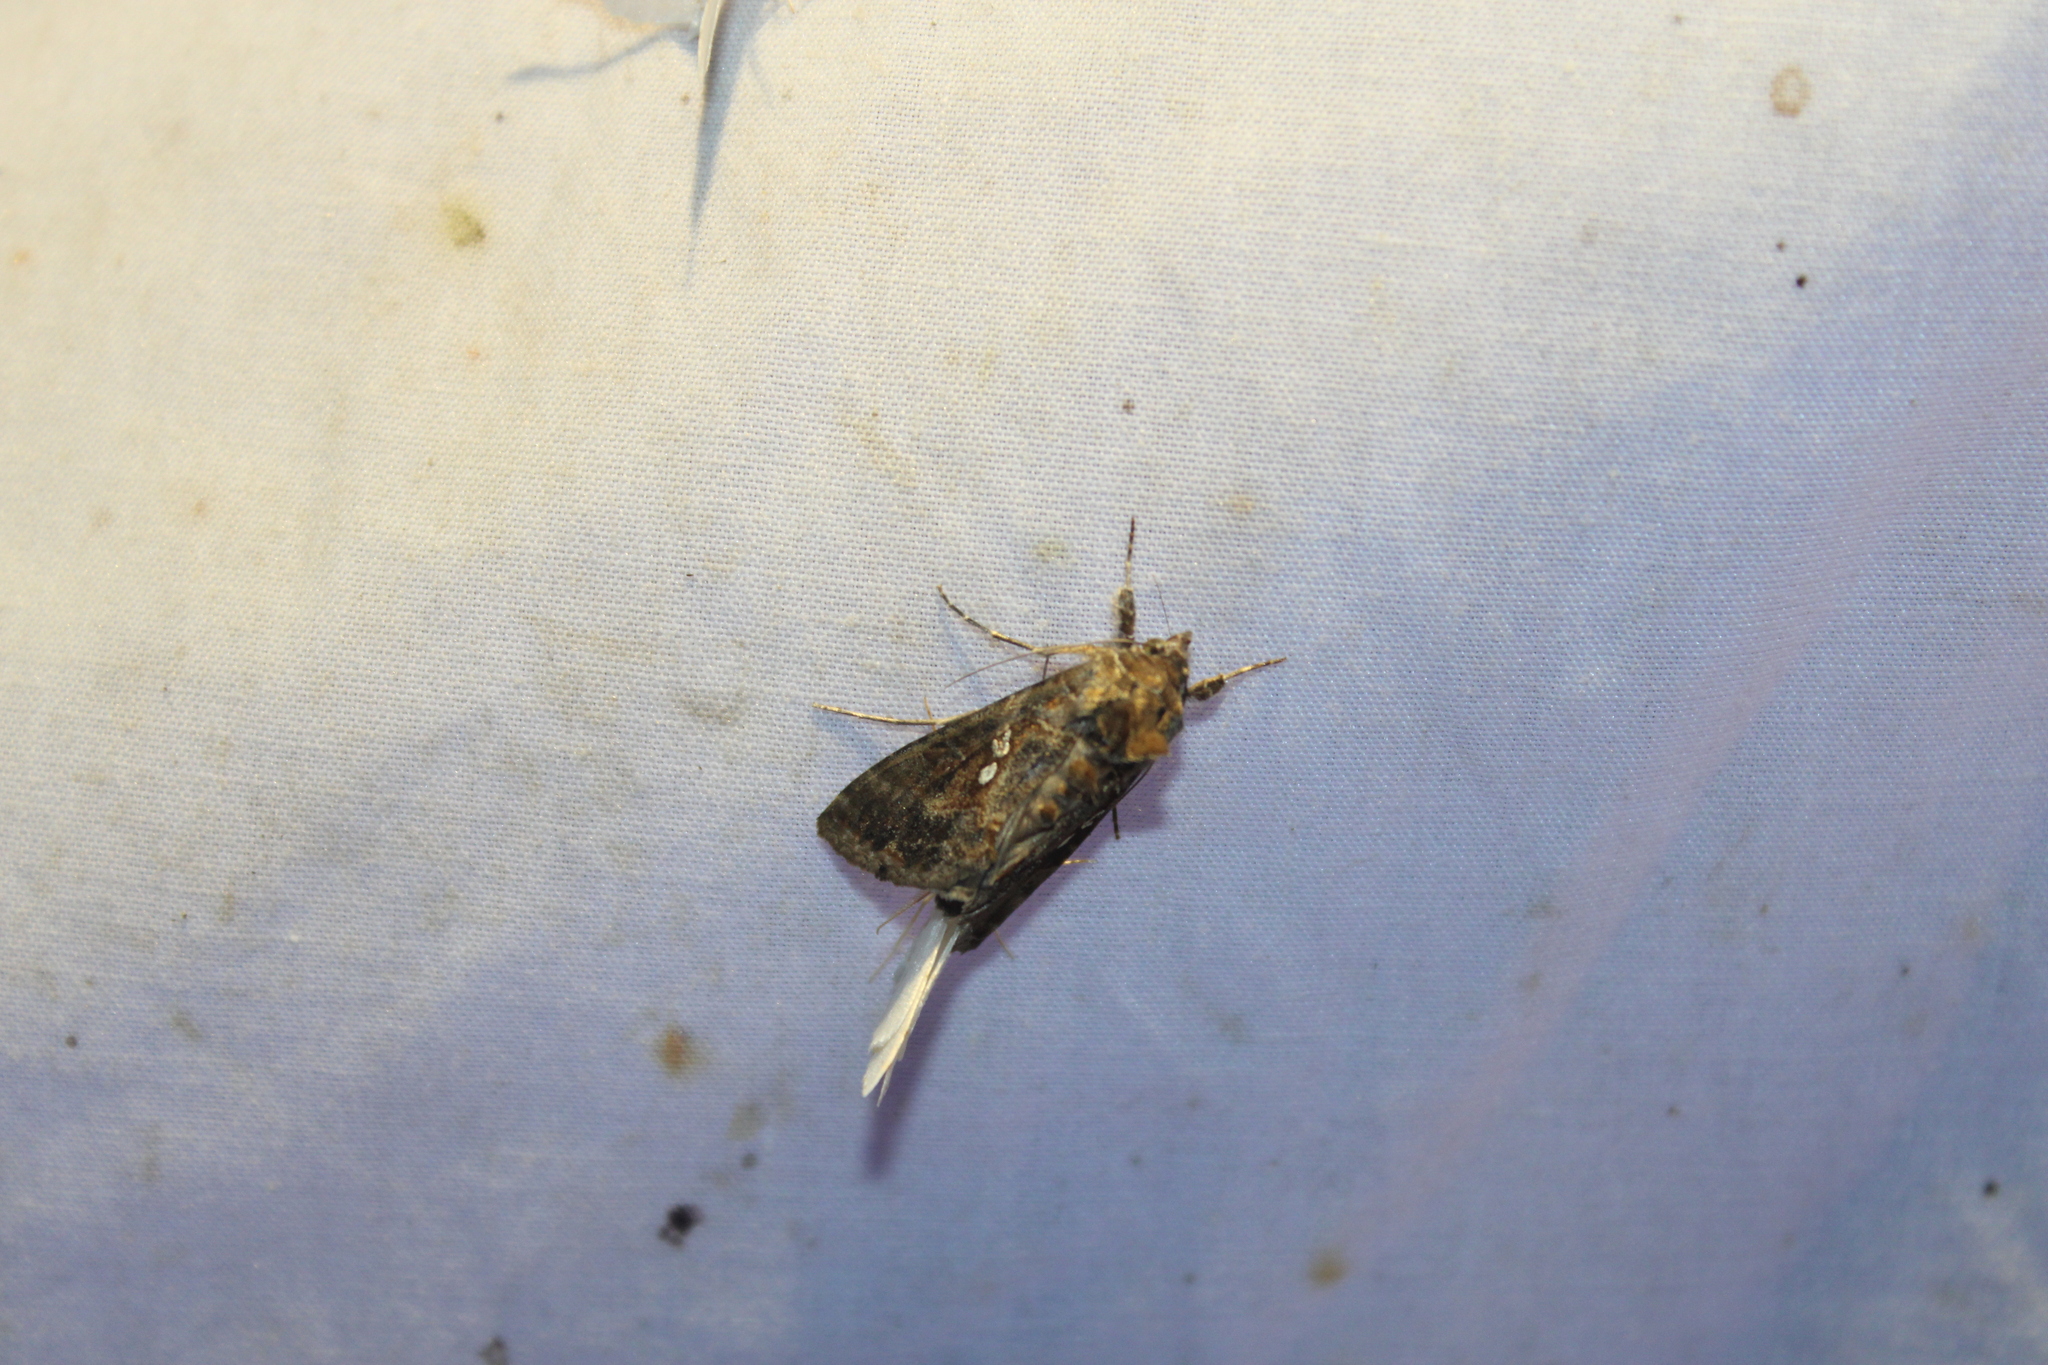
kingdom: Animalia
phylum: Arthropoda
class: Insecta
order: Lepidoptera
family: Noctuidae
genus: Chrysodeixis
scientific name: Chrysodeixis includens
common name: Cutworm moth
